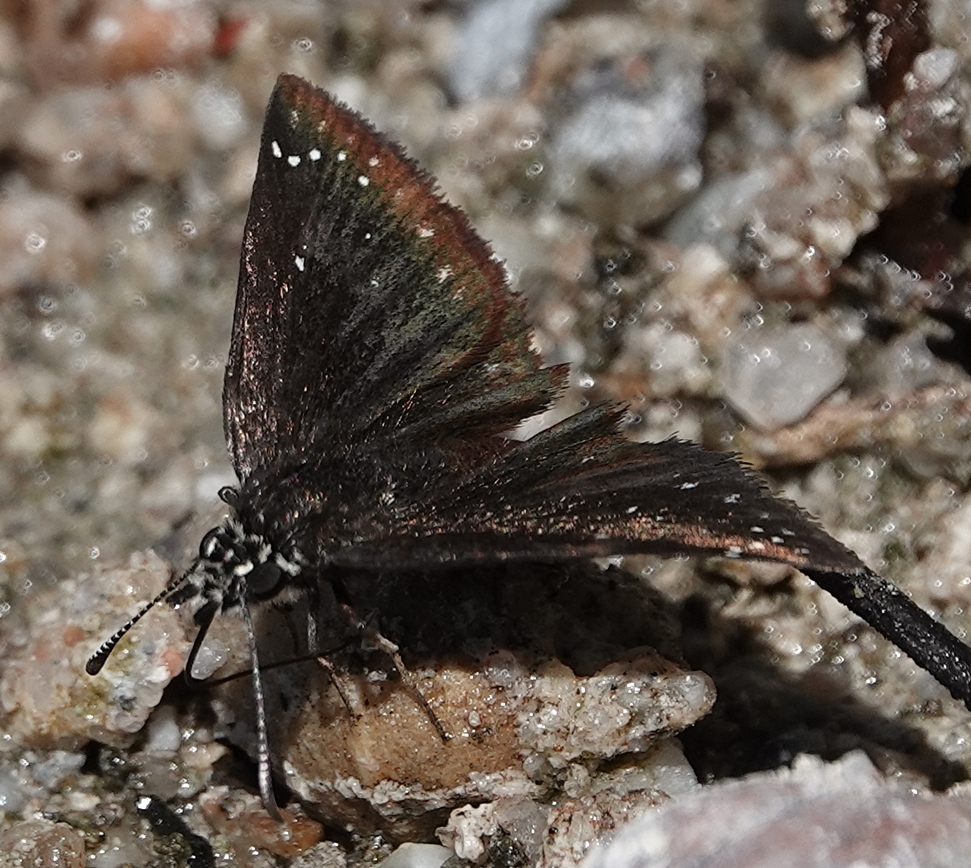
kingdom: Animalia
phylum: Arthropoda
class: Insecta
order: Lepidoptera
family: Hesperiidae
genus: Pholisora
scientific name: Pholisora catullus
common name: Common sootywing
